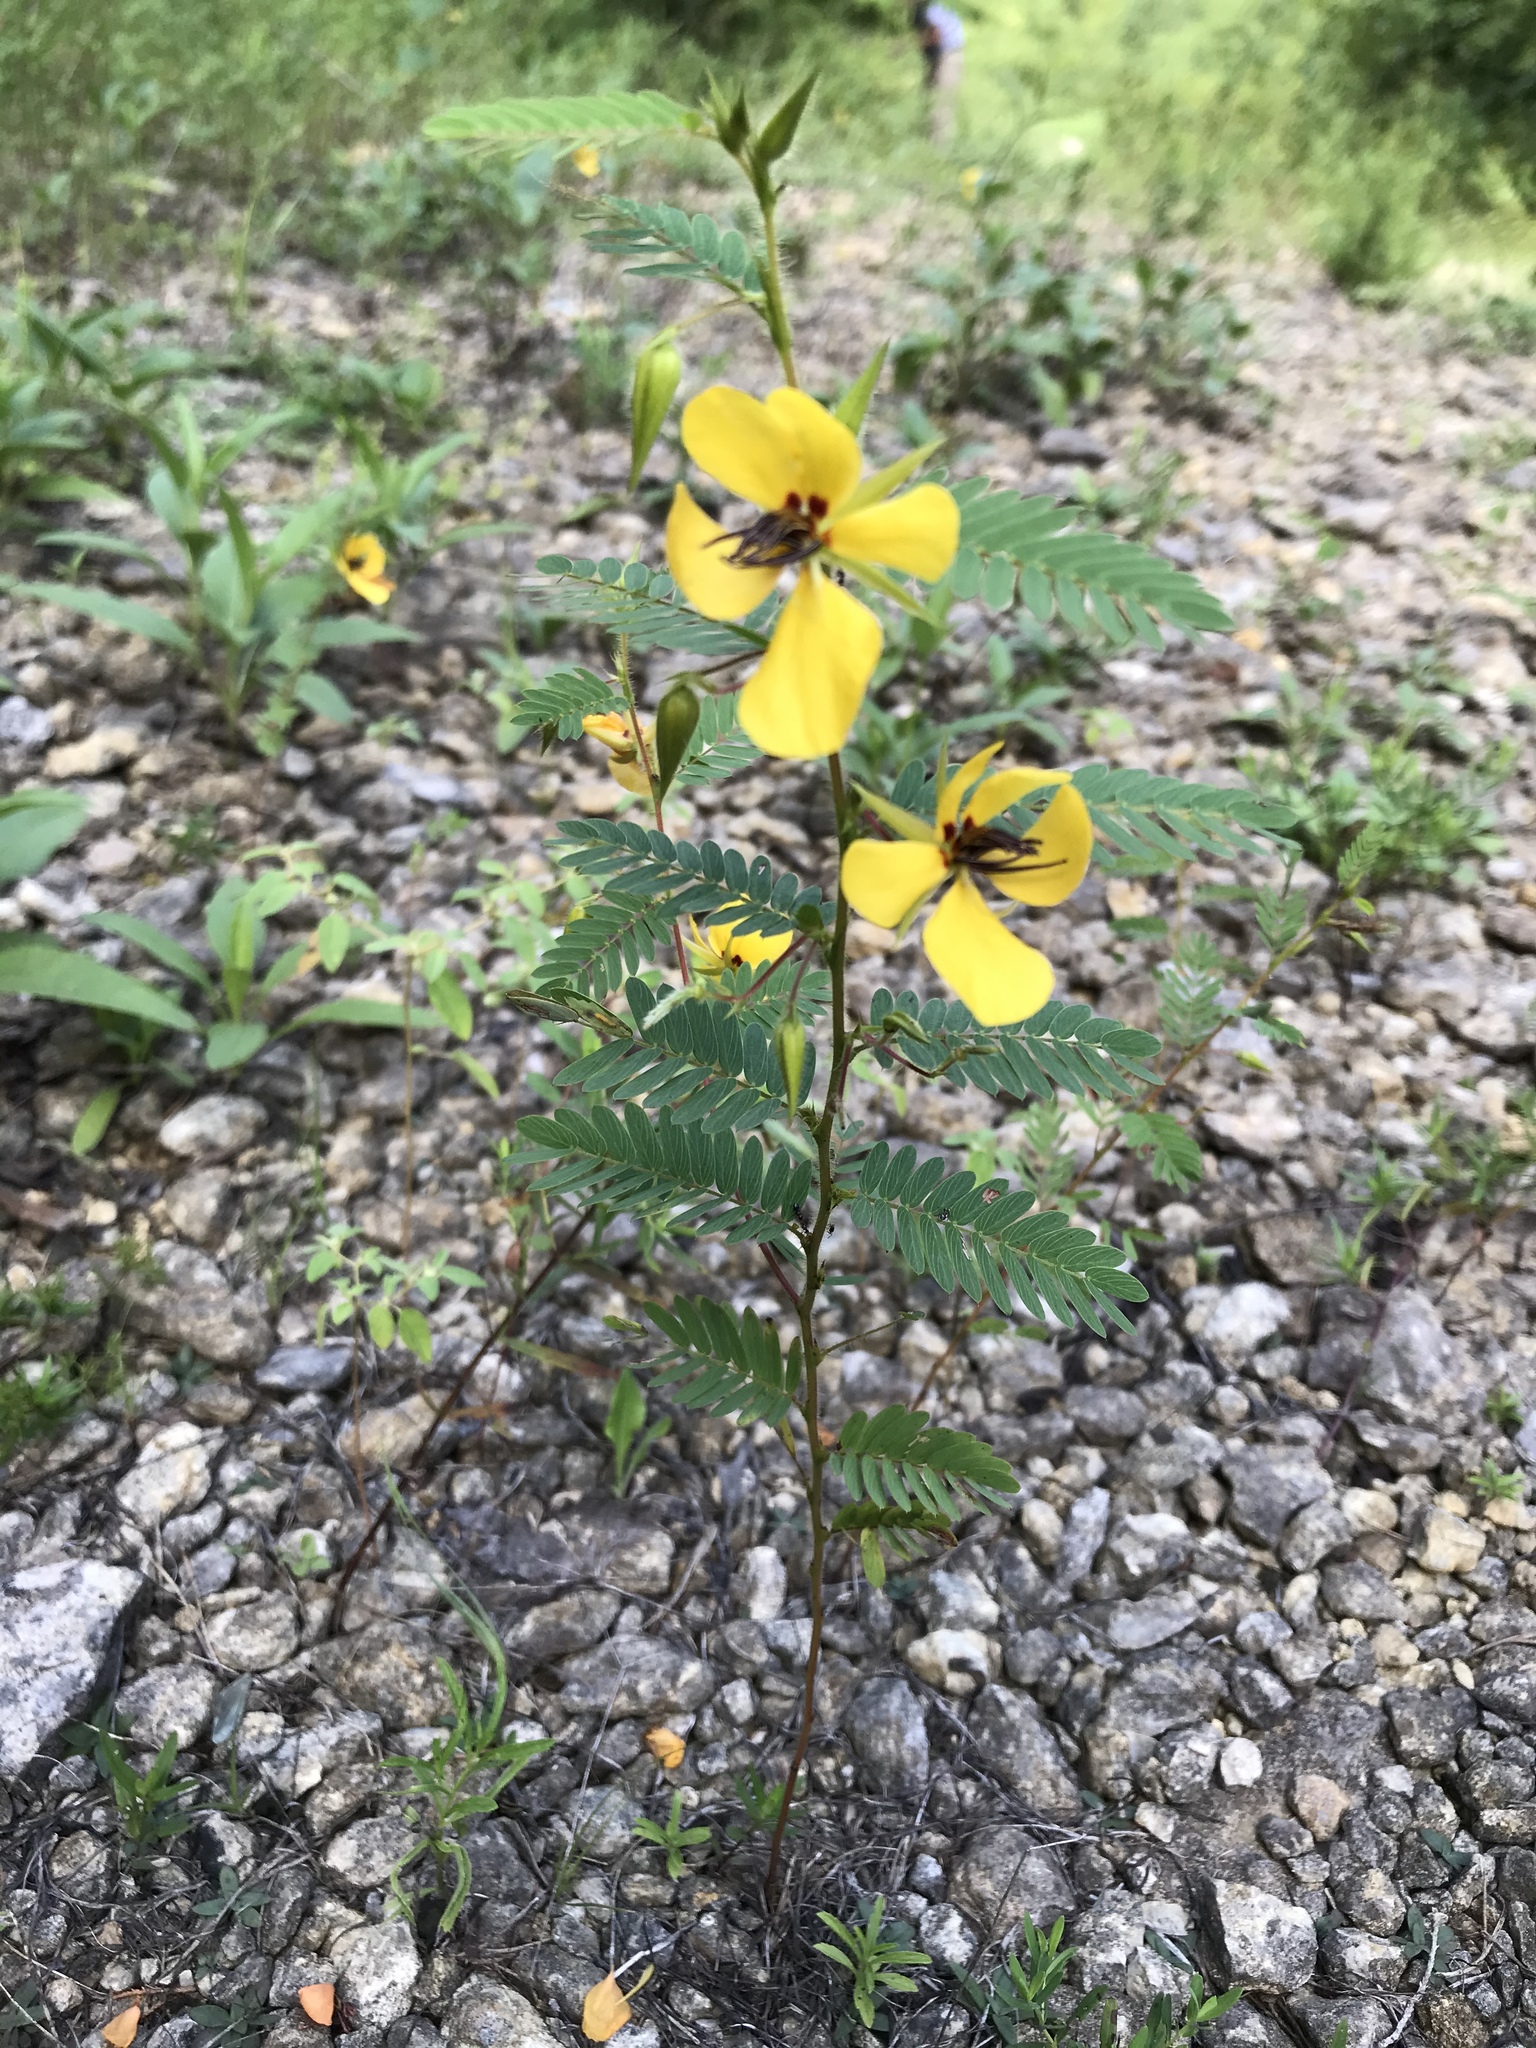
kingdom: Plantae
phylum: Tracheophyta
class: Magnoliopsida
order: Fabales
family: Fabaceae
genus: Chamaecrista
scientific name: Chamaecrista fasciculata
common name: Golden cassia
